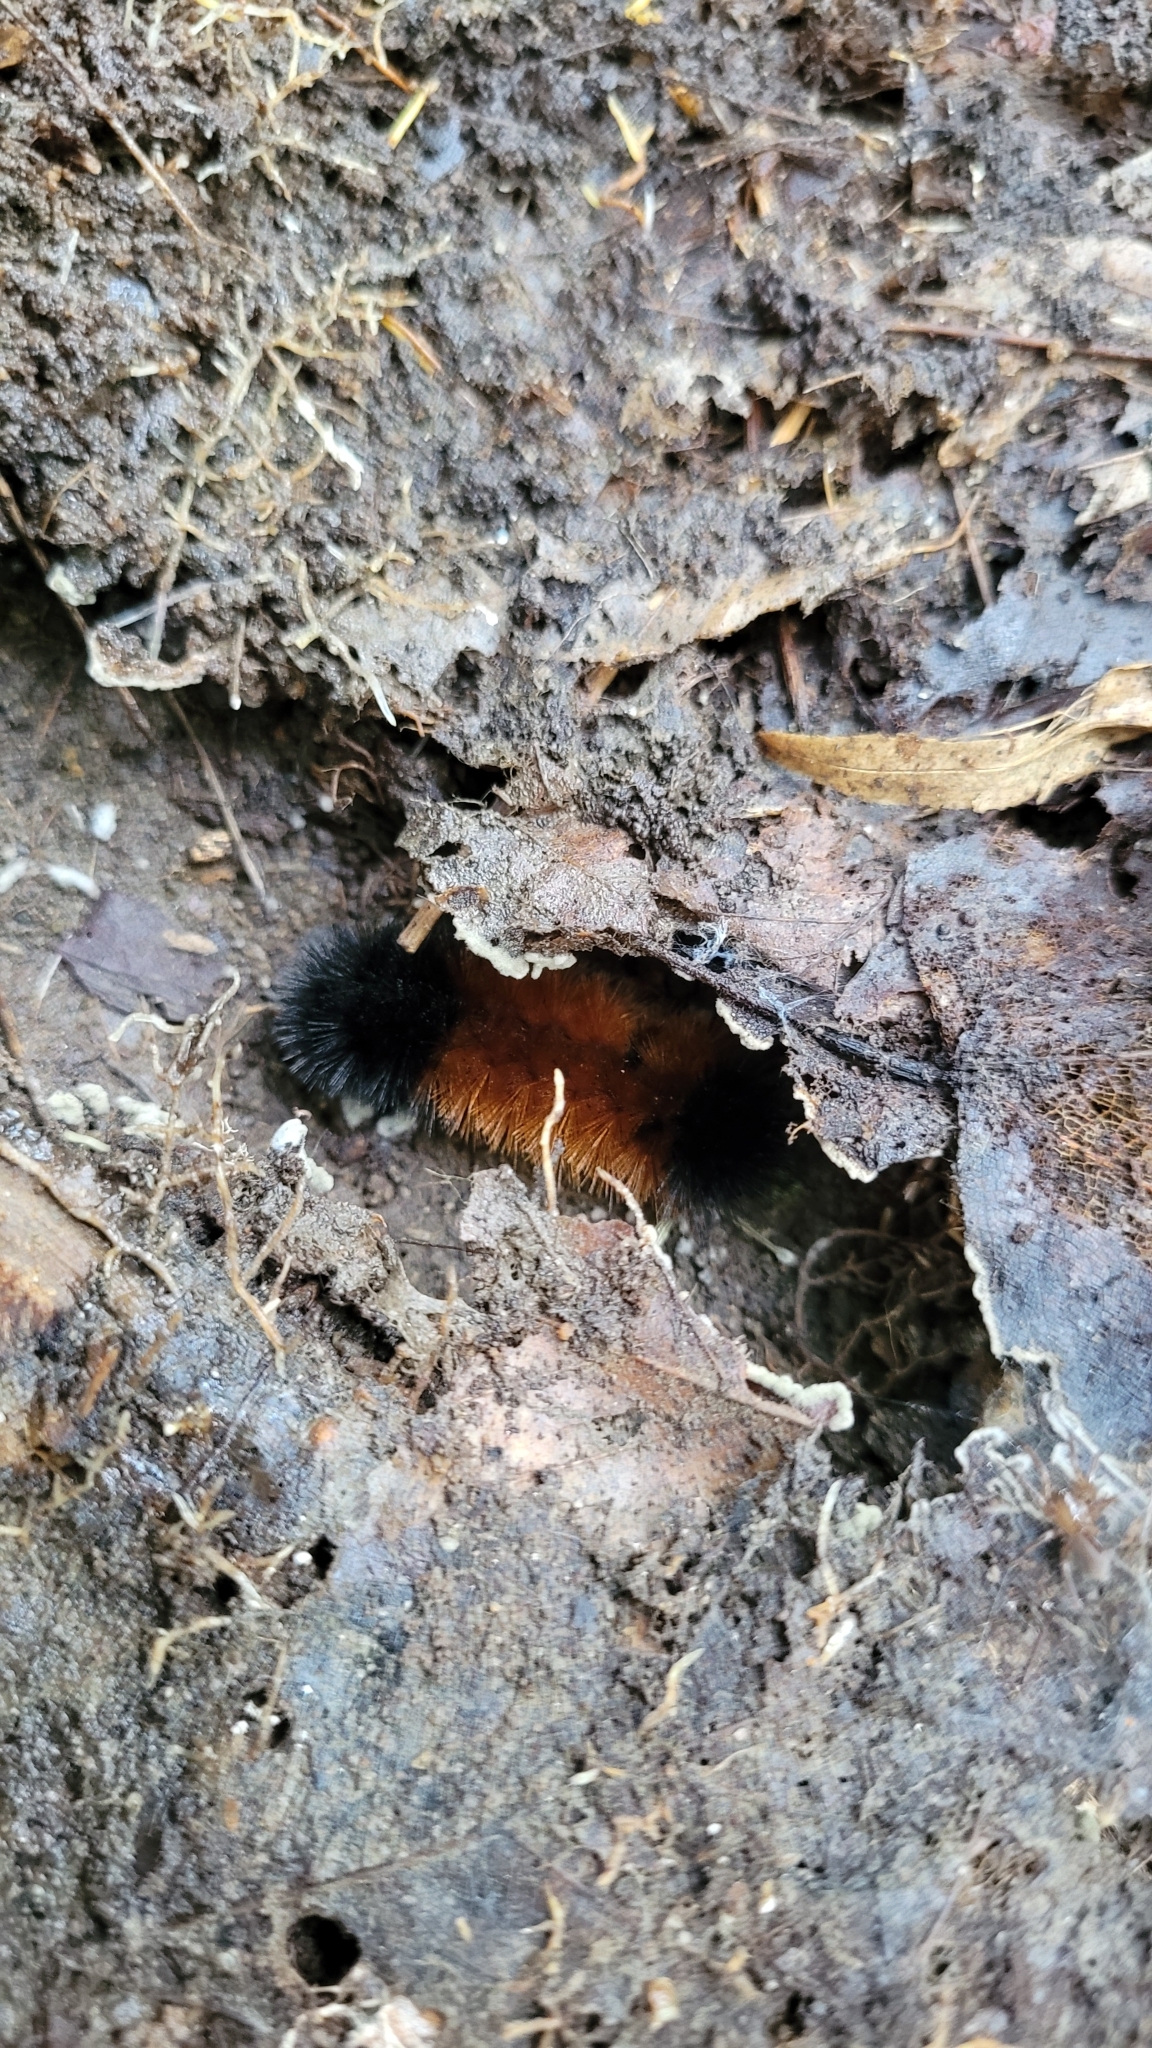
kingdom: Animalia
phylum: Arthropoda
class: Insecta
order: Lepidoptera
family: Erebidae
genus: Pyrrharctia
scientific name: Pyrrharctia isabella
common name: Isabella tiger moth
